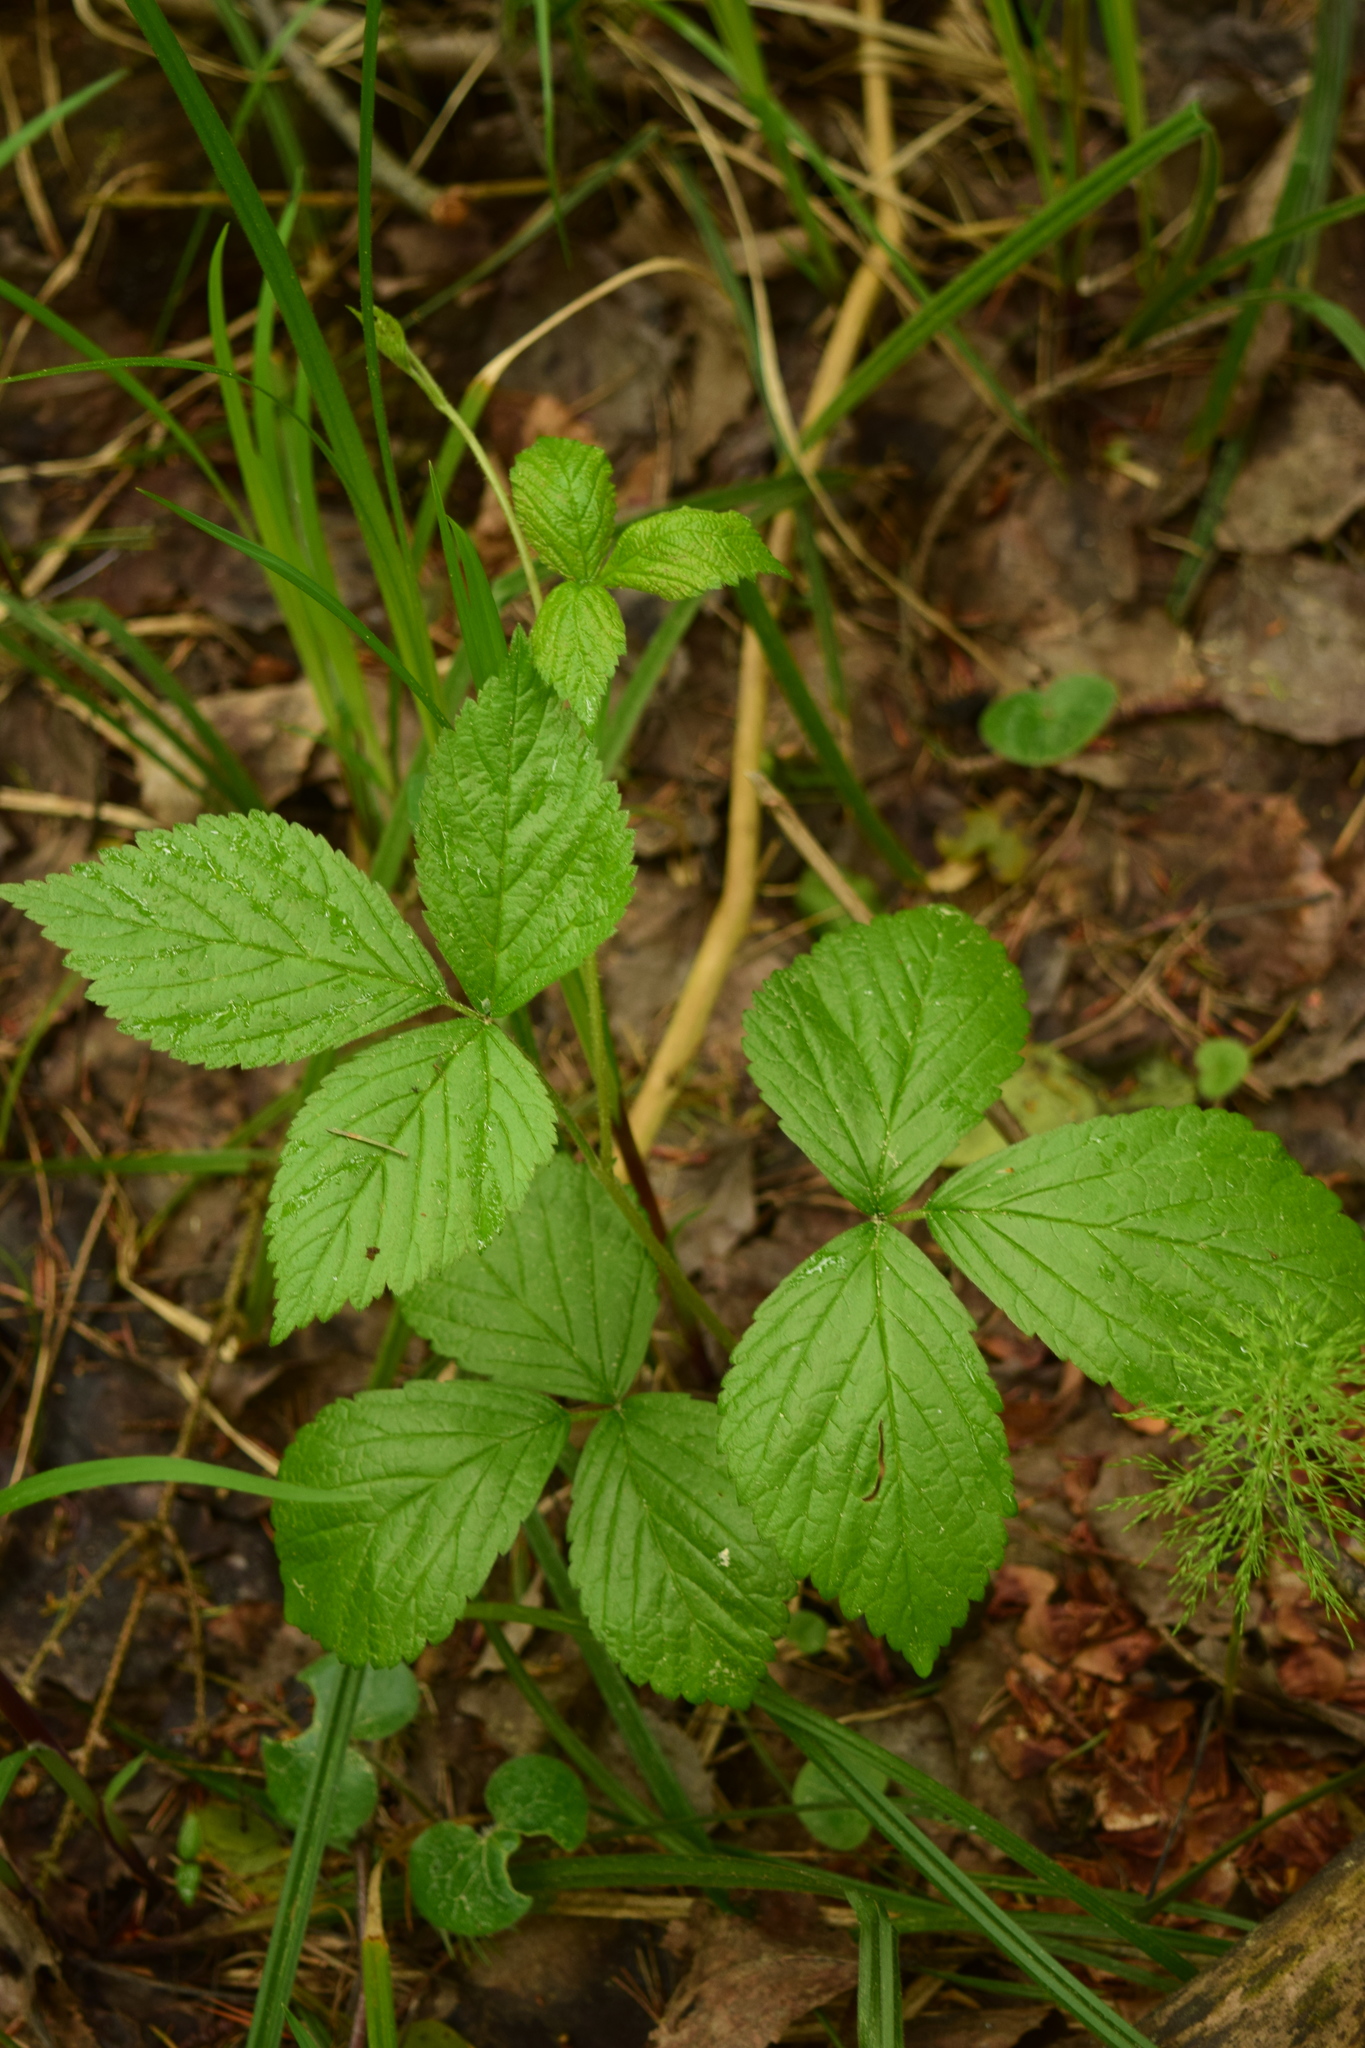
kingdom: Plantae
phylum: Tracheophyta
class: Magnoliopsida
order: Rosales
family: Rosaceae
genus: Rubus
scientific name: Rubus saxatilis
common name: Stone bramble
